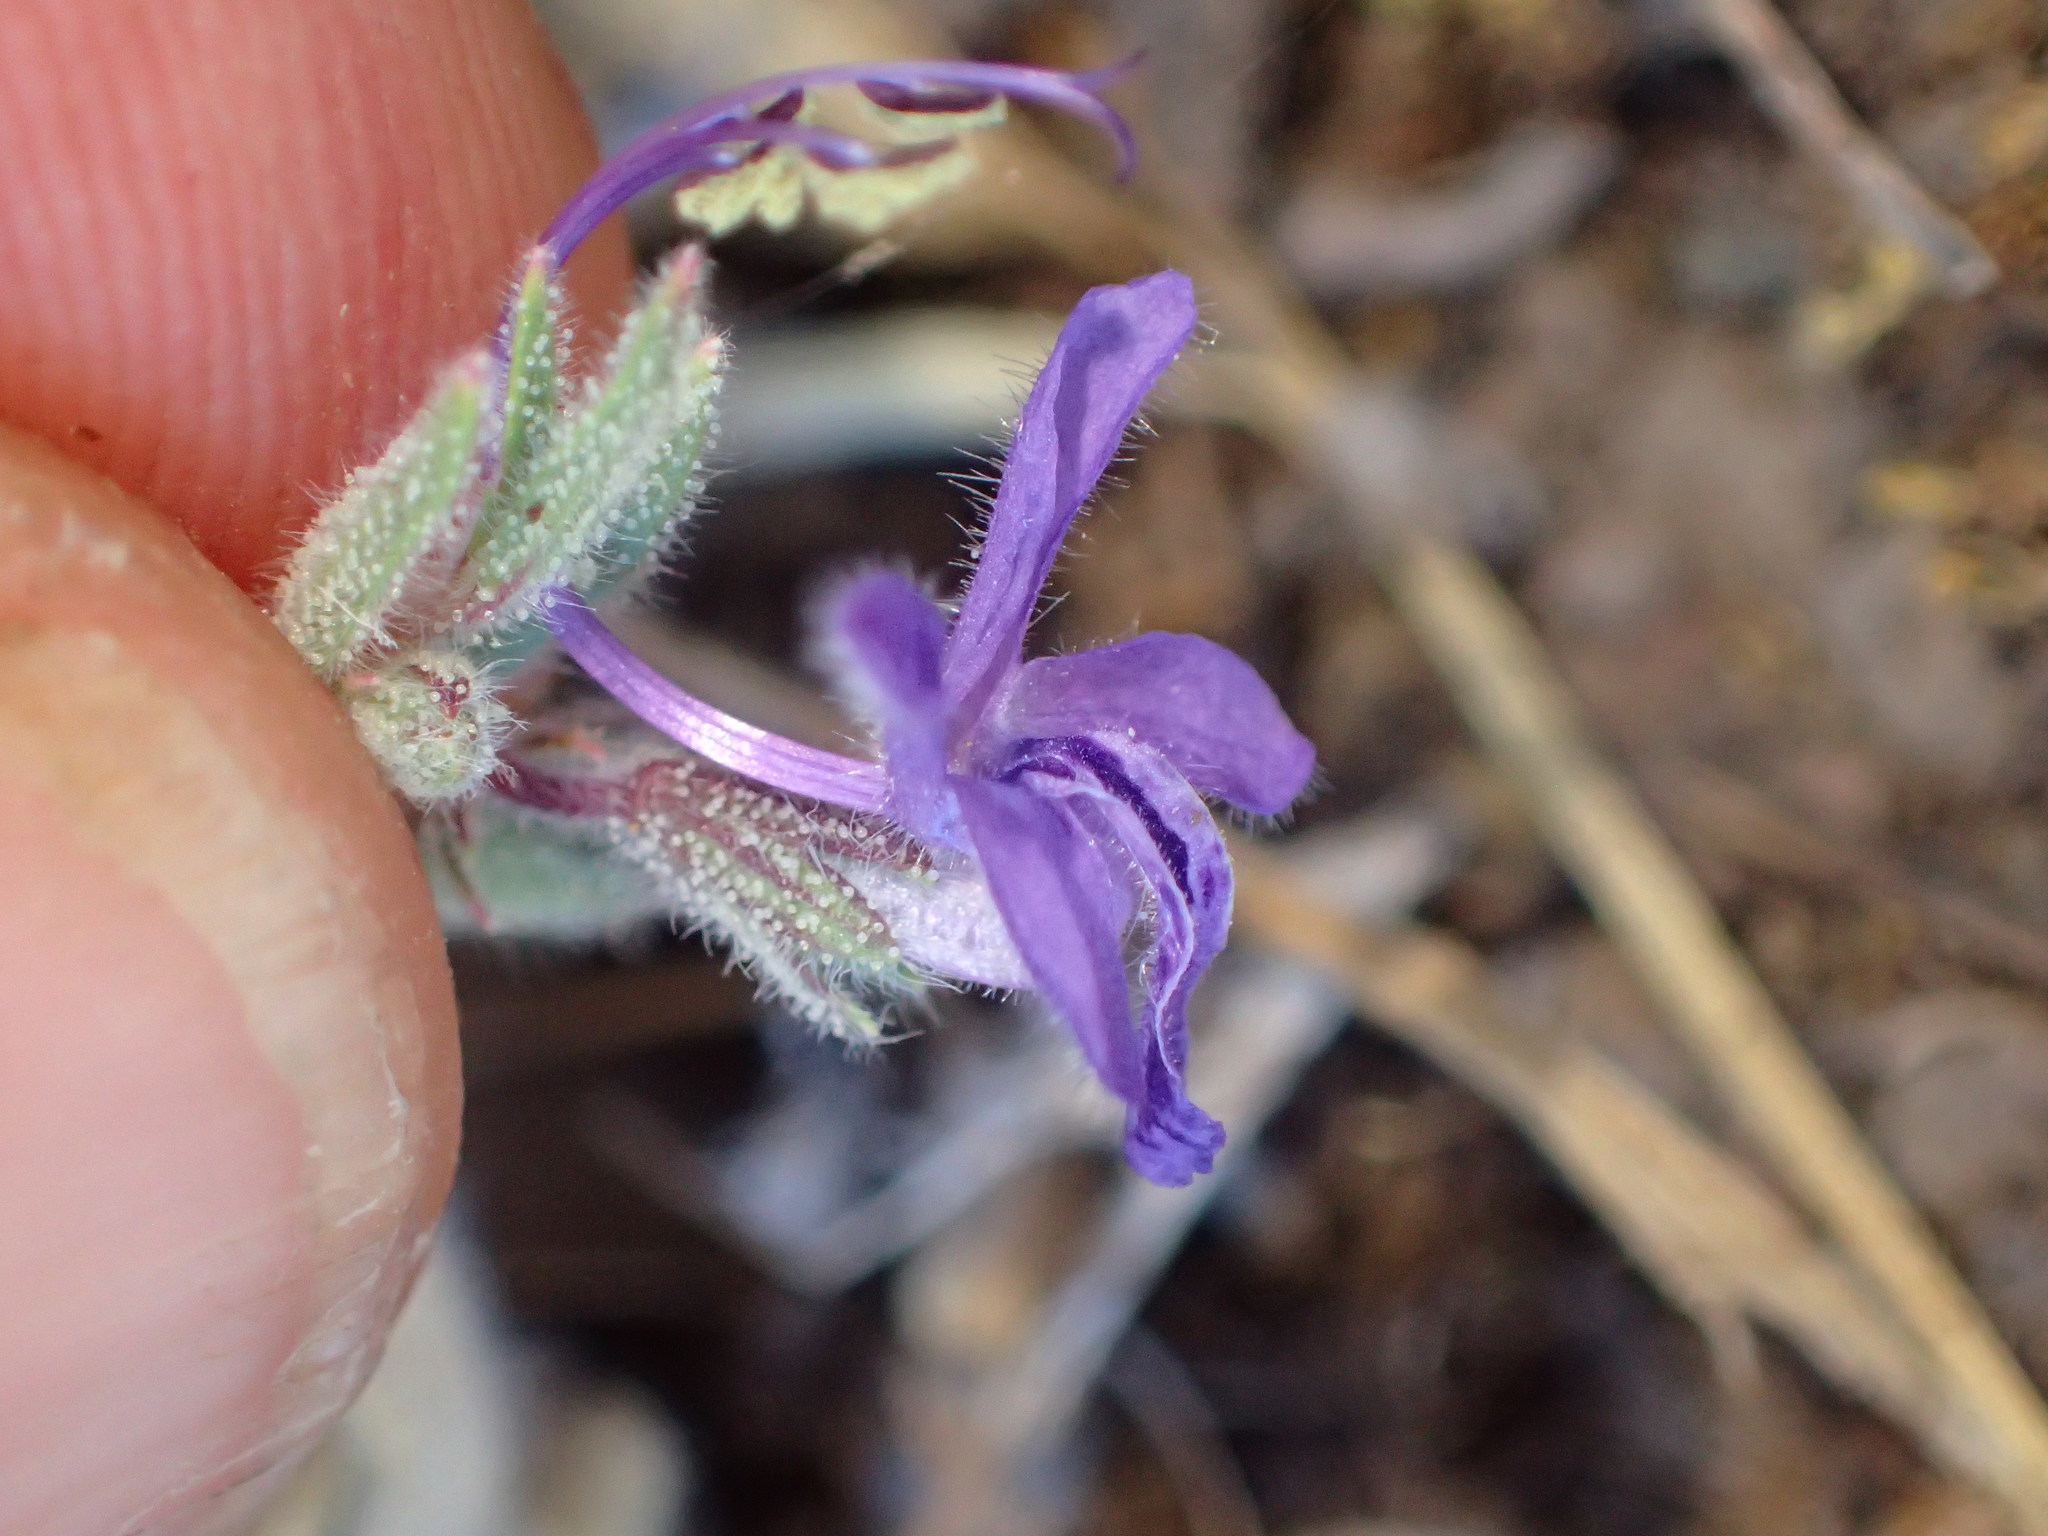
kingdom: Plantae
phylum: Tracheophyta
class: Magnoliopsida
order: Lamiales
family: Lamiaceae
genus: Trichostema
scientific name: Trichostema lanceolatum
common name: Vinegar-weed
